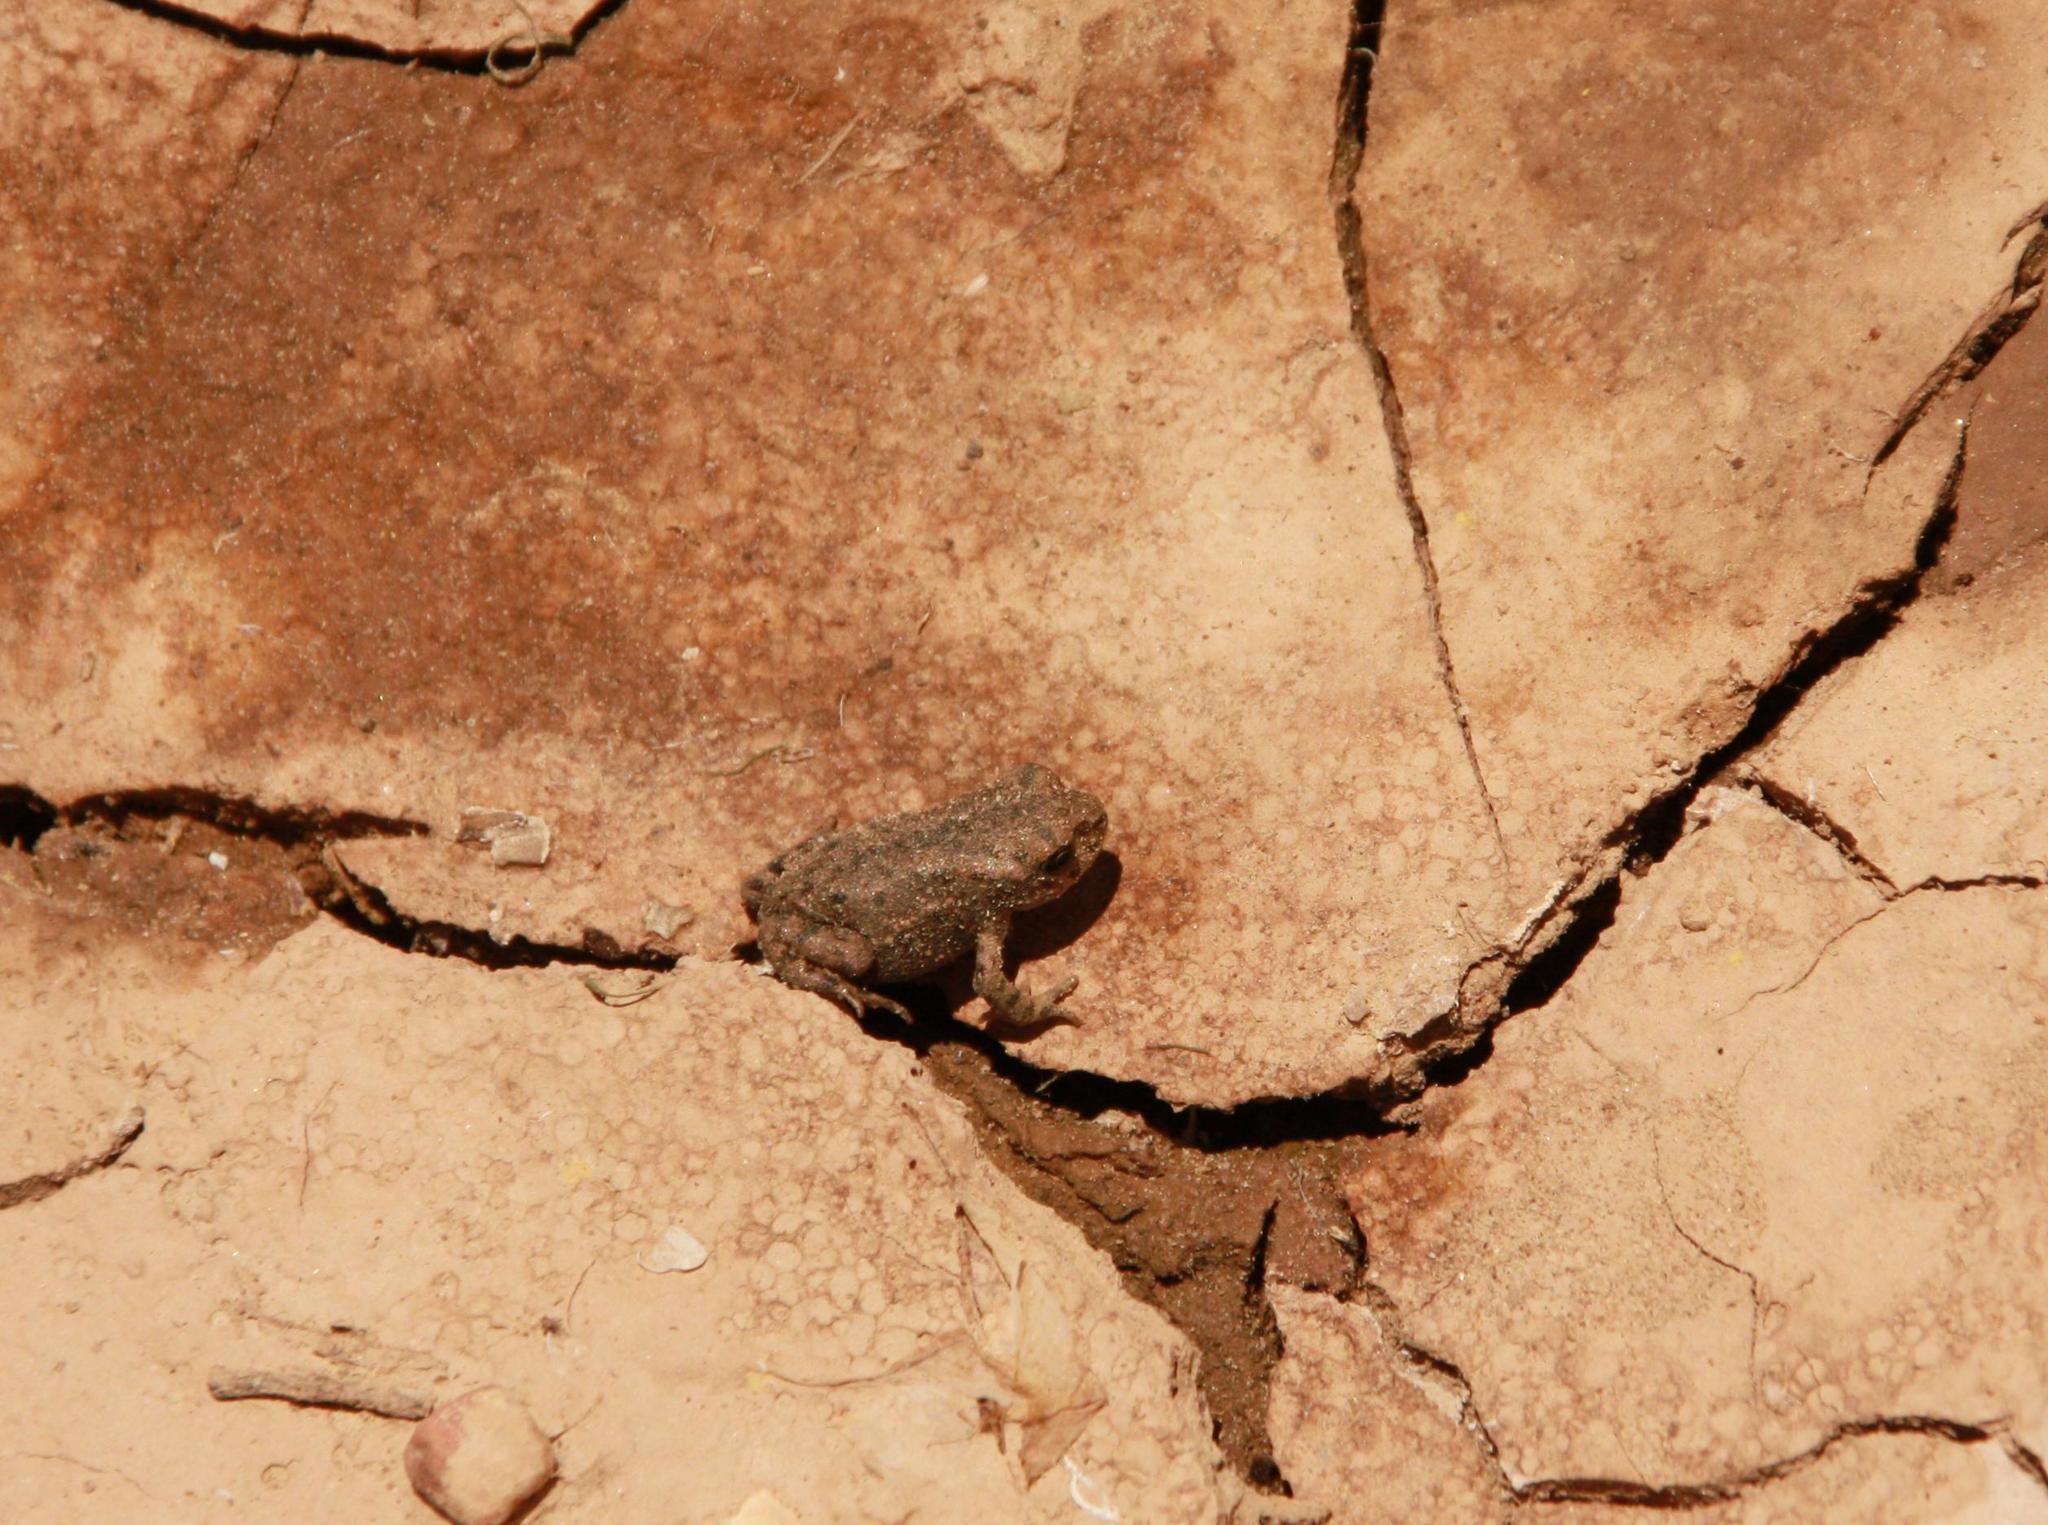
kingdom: Animalia
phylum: Chordata
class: Amphibia
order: Anura
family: Bufonidae
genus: Bufotes
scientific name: Bufotes viridis
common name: European green toad
